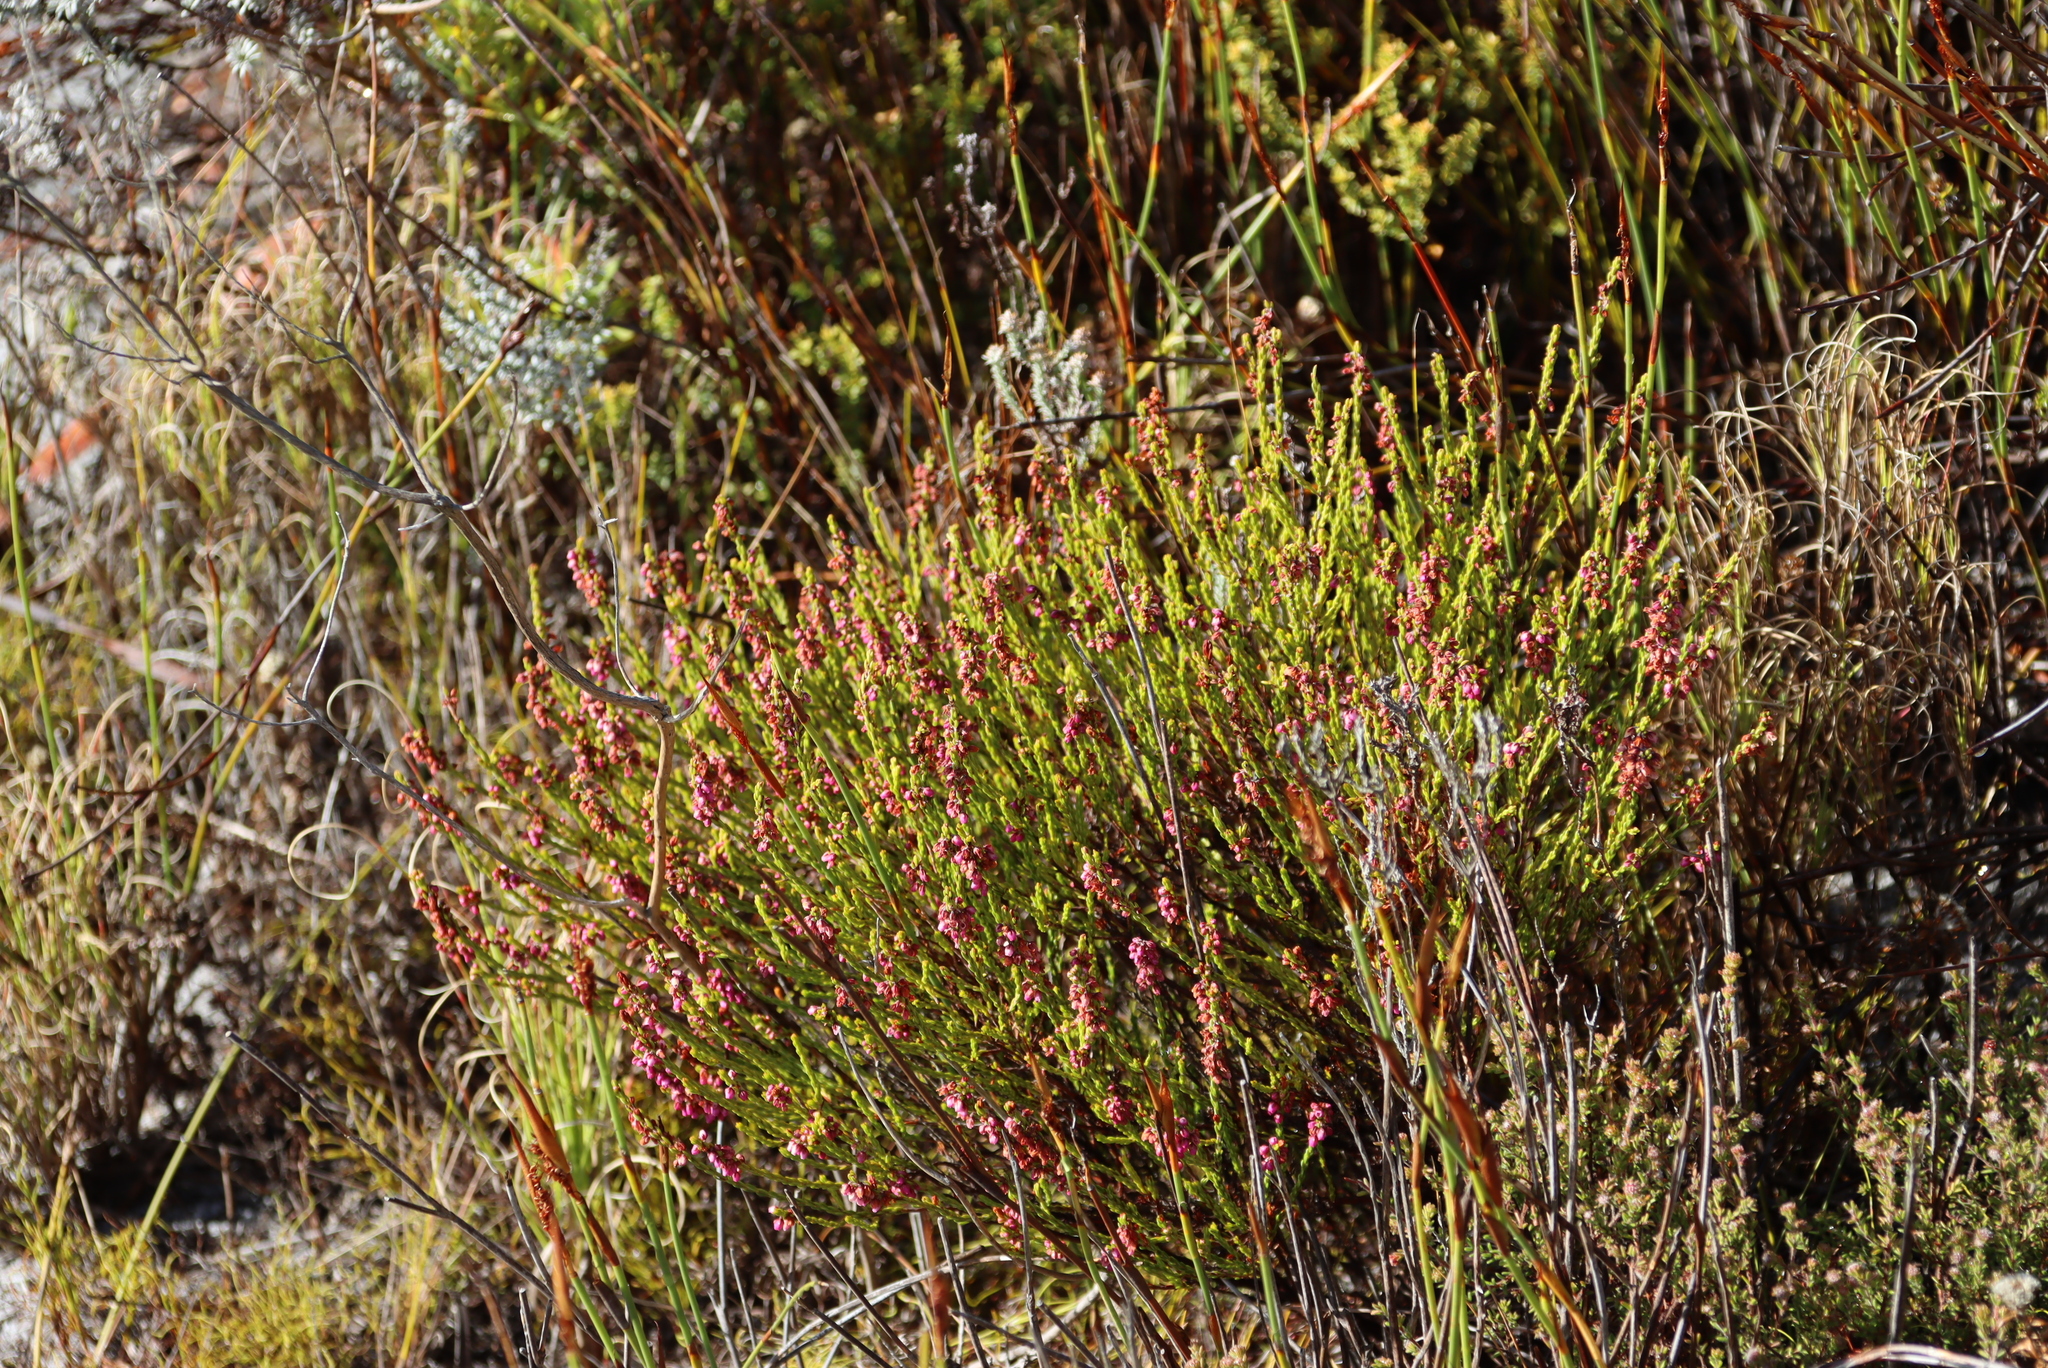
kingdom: Plantae
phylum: Tracheophyta
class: Magnoliopsida
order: Ericales
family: Ericaceae
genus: Erica
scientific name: Erica pulchella
